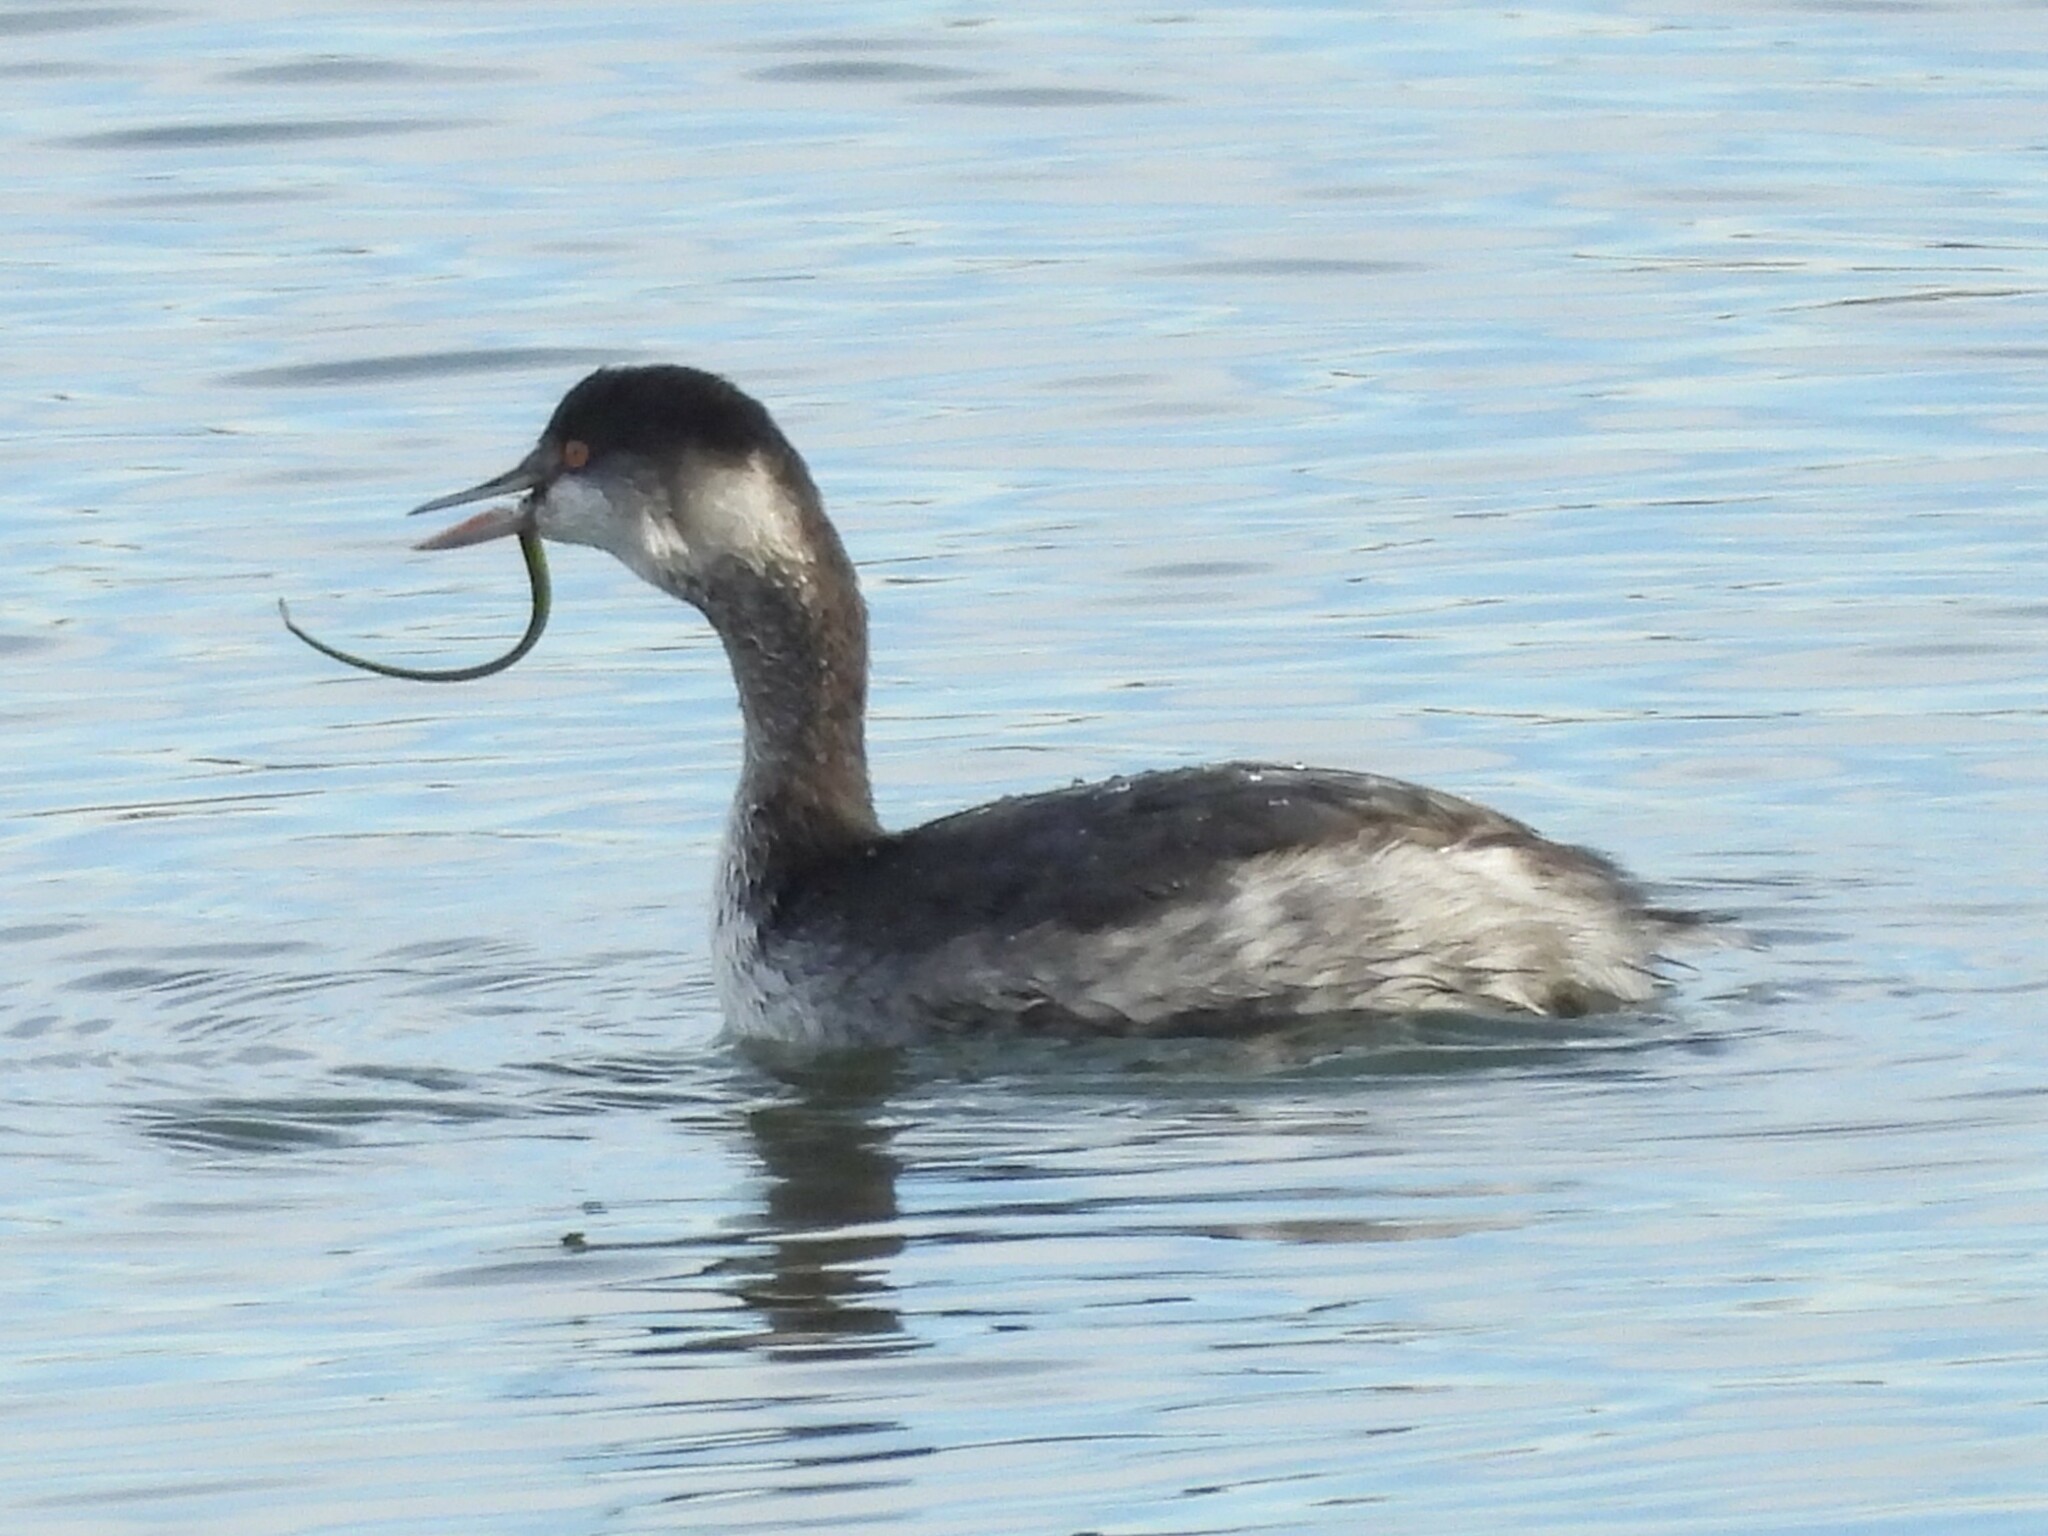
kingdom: Animalia
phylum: Chordata
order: Syngnathiformes
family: Syngnathidae
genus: Syngnathus
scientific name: Syngnathus californiensis
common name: Great pipefish
